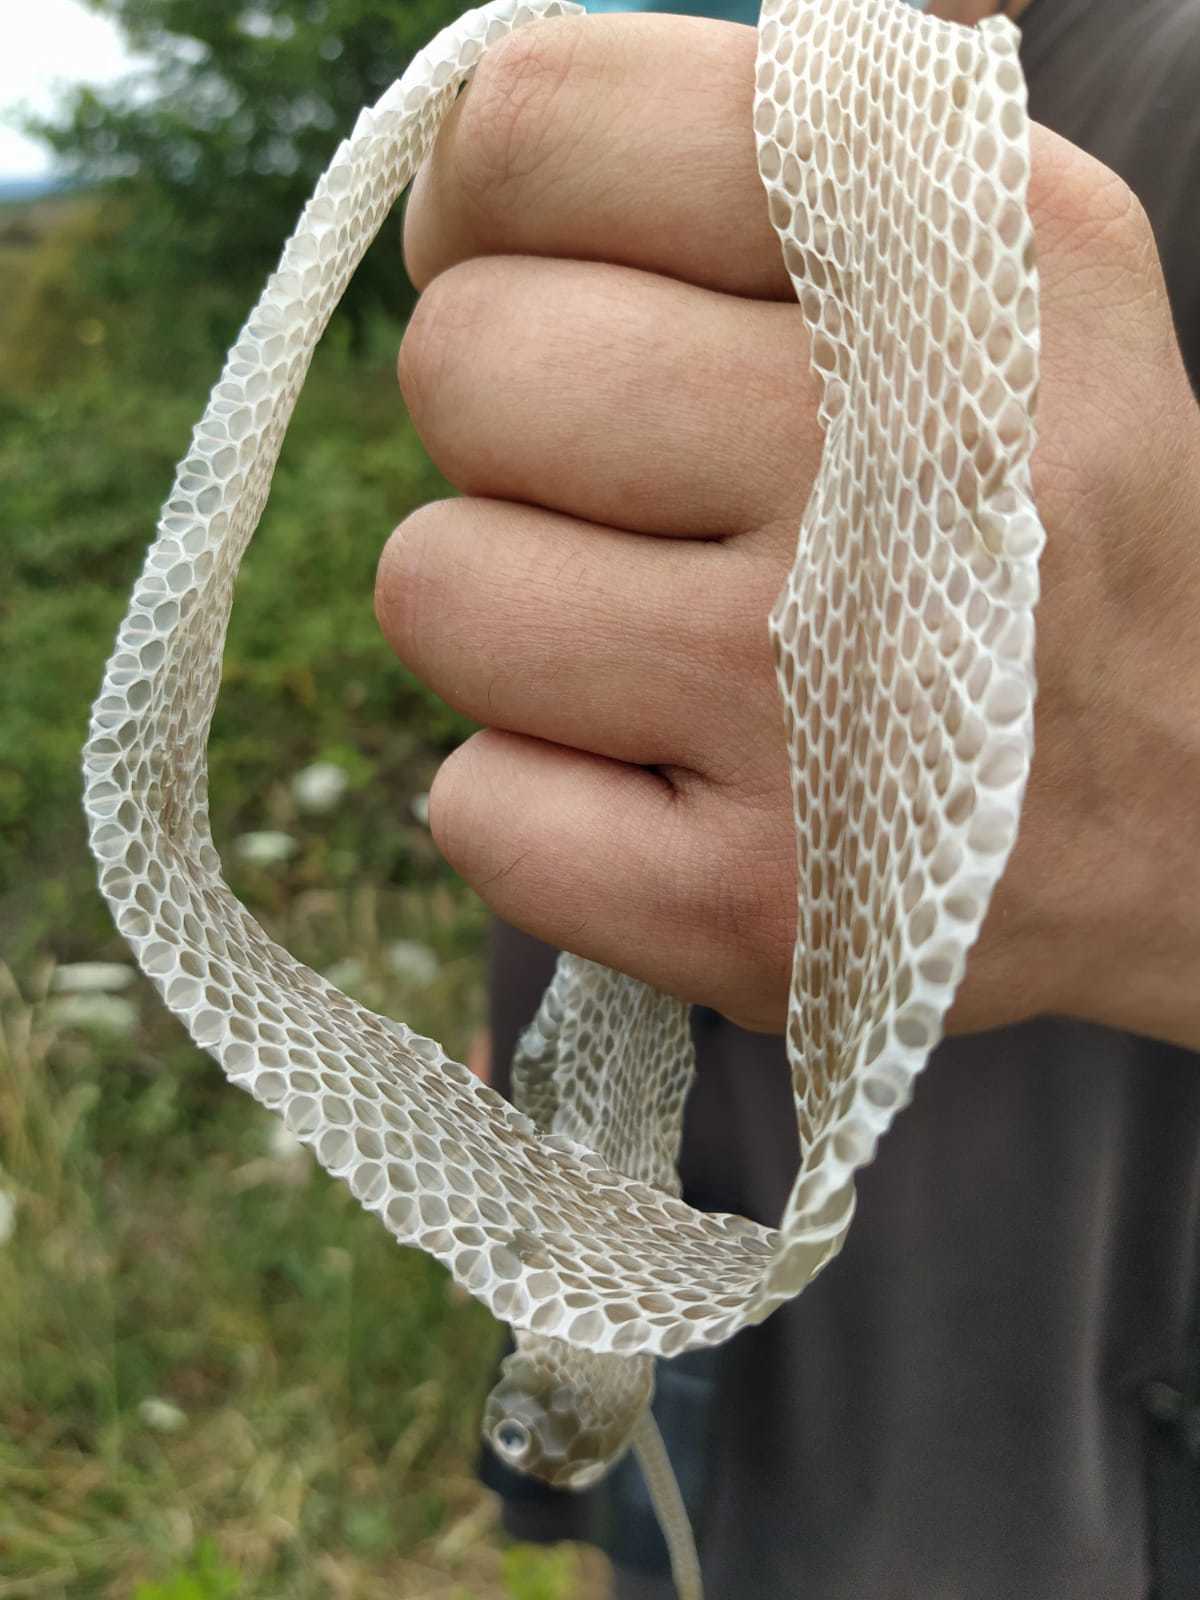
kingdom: Animalia
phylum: Chordata
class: Squamata
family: Colubridae
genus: Natrix
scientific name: Natrix astreptophora
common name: Red-eyed grass snake
